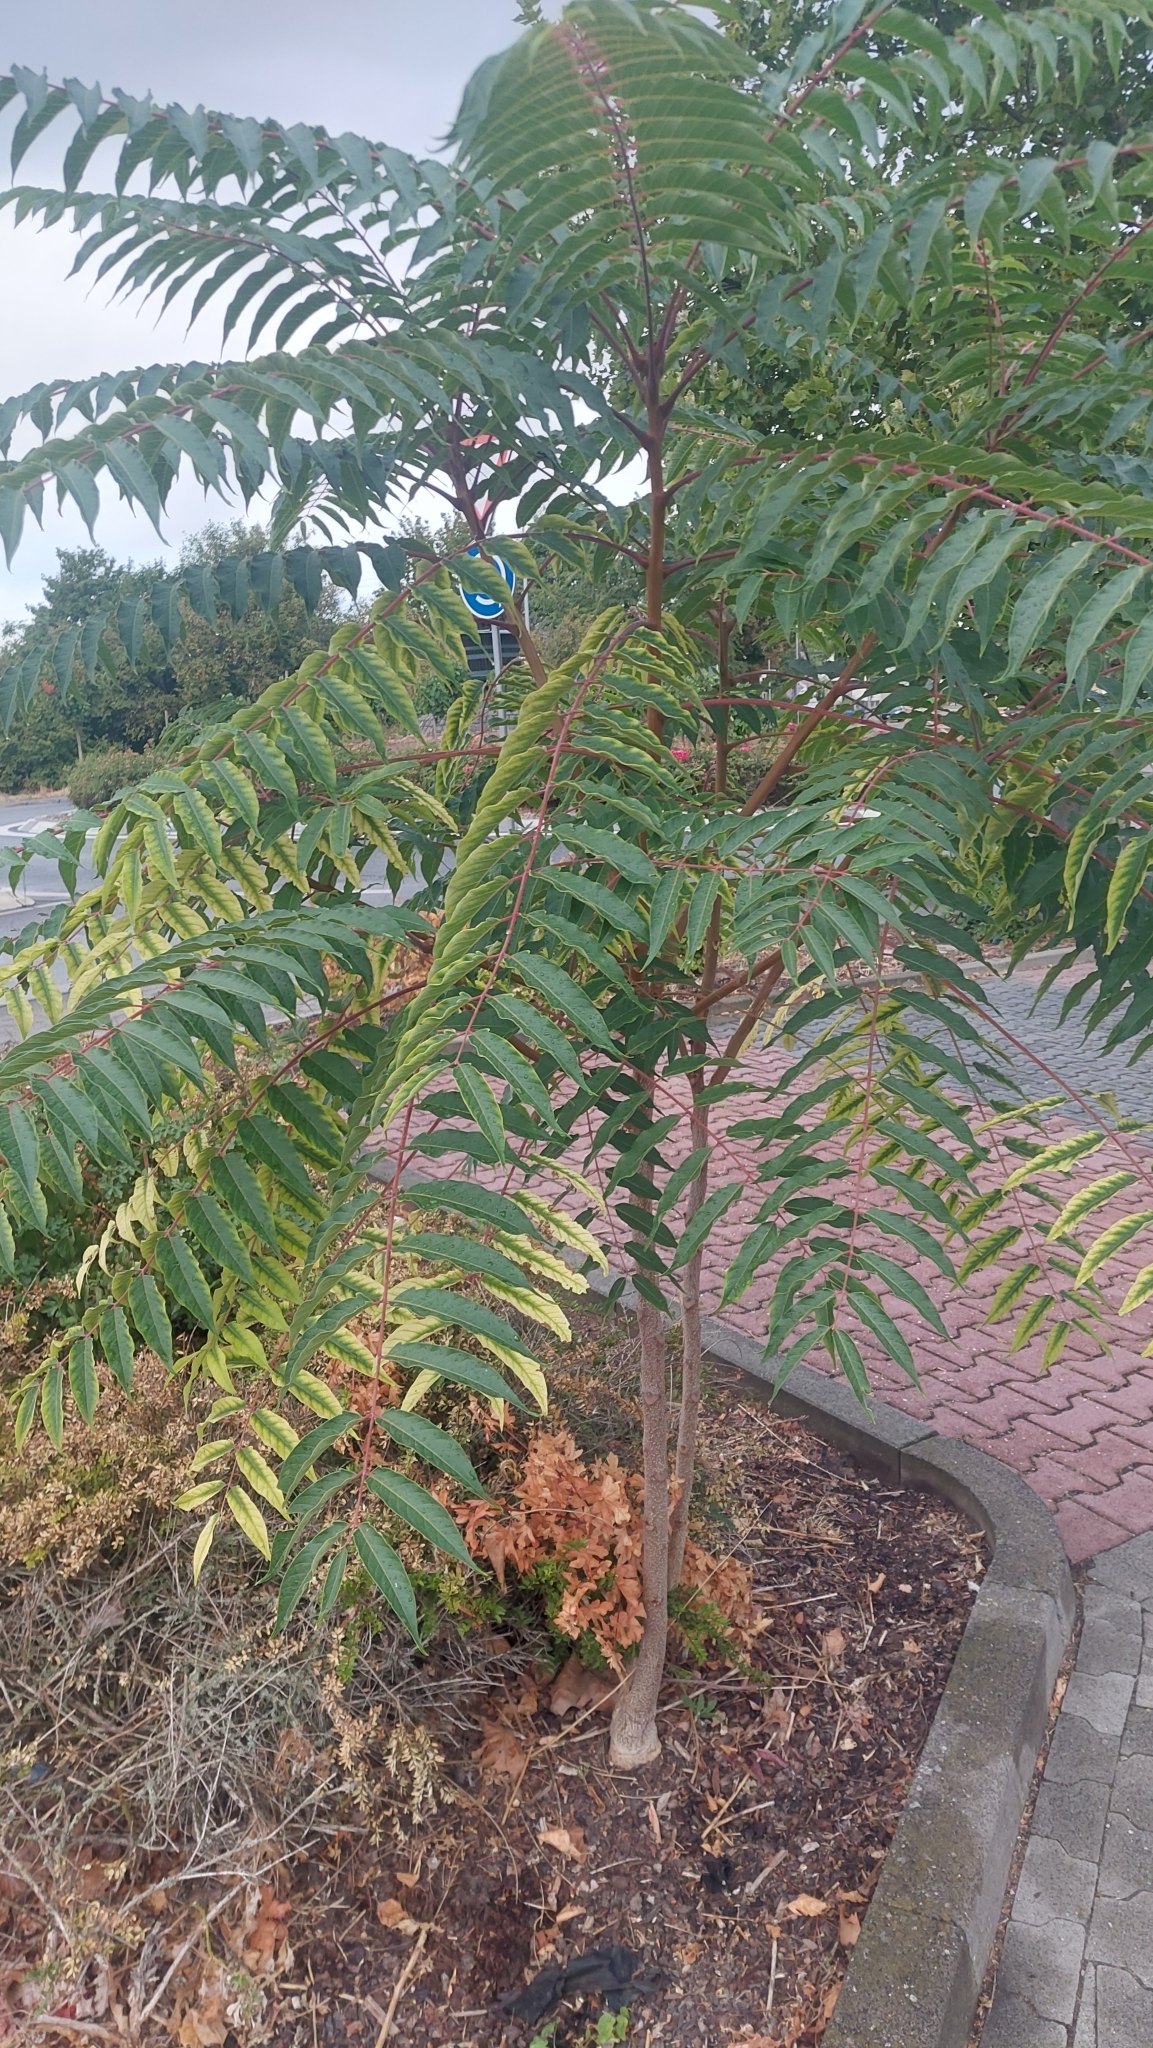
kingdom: Plantae
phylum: Tracheophyta
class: Magnoliopsida
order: Sapindales
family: Simaroubaceae
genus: Ailanthus
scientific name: Ailanthus altissima
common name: Tree-of-heaven
